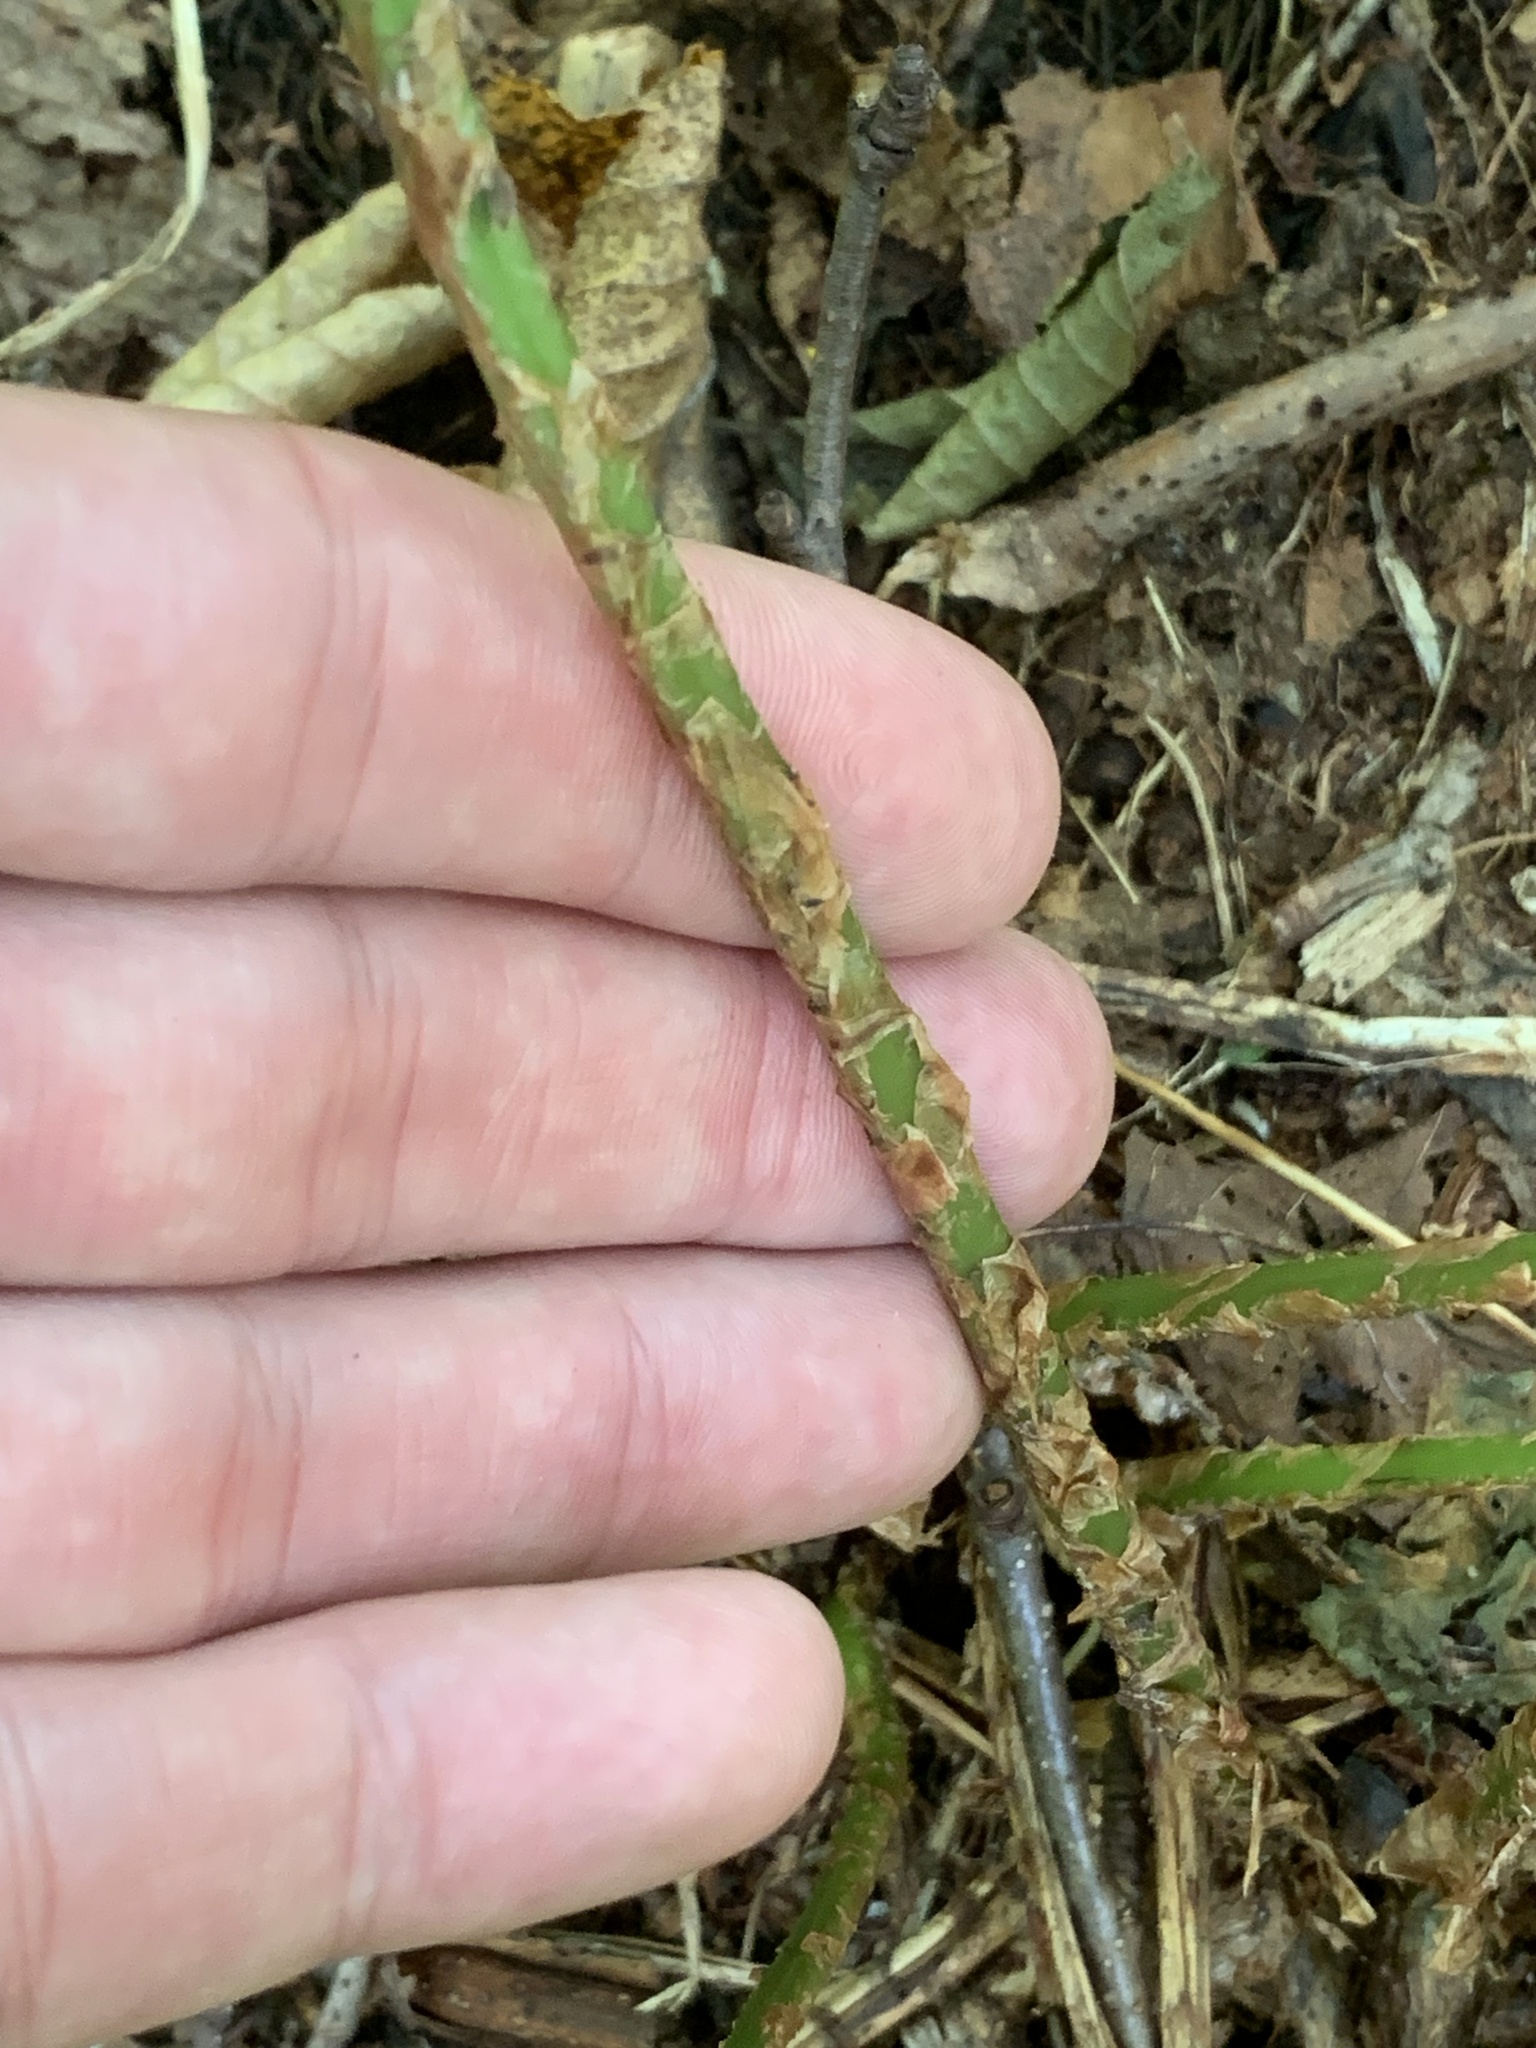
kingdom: Plantae
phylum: Tracheophyta
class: Polypodiopsida
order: Polypodiales
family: Dryopteridaceae
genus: Dryopteris
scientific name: Dryopteris intermedia
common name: Evergreen wood fern
